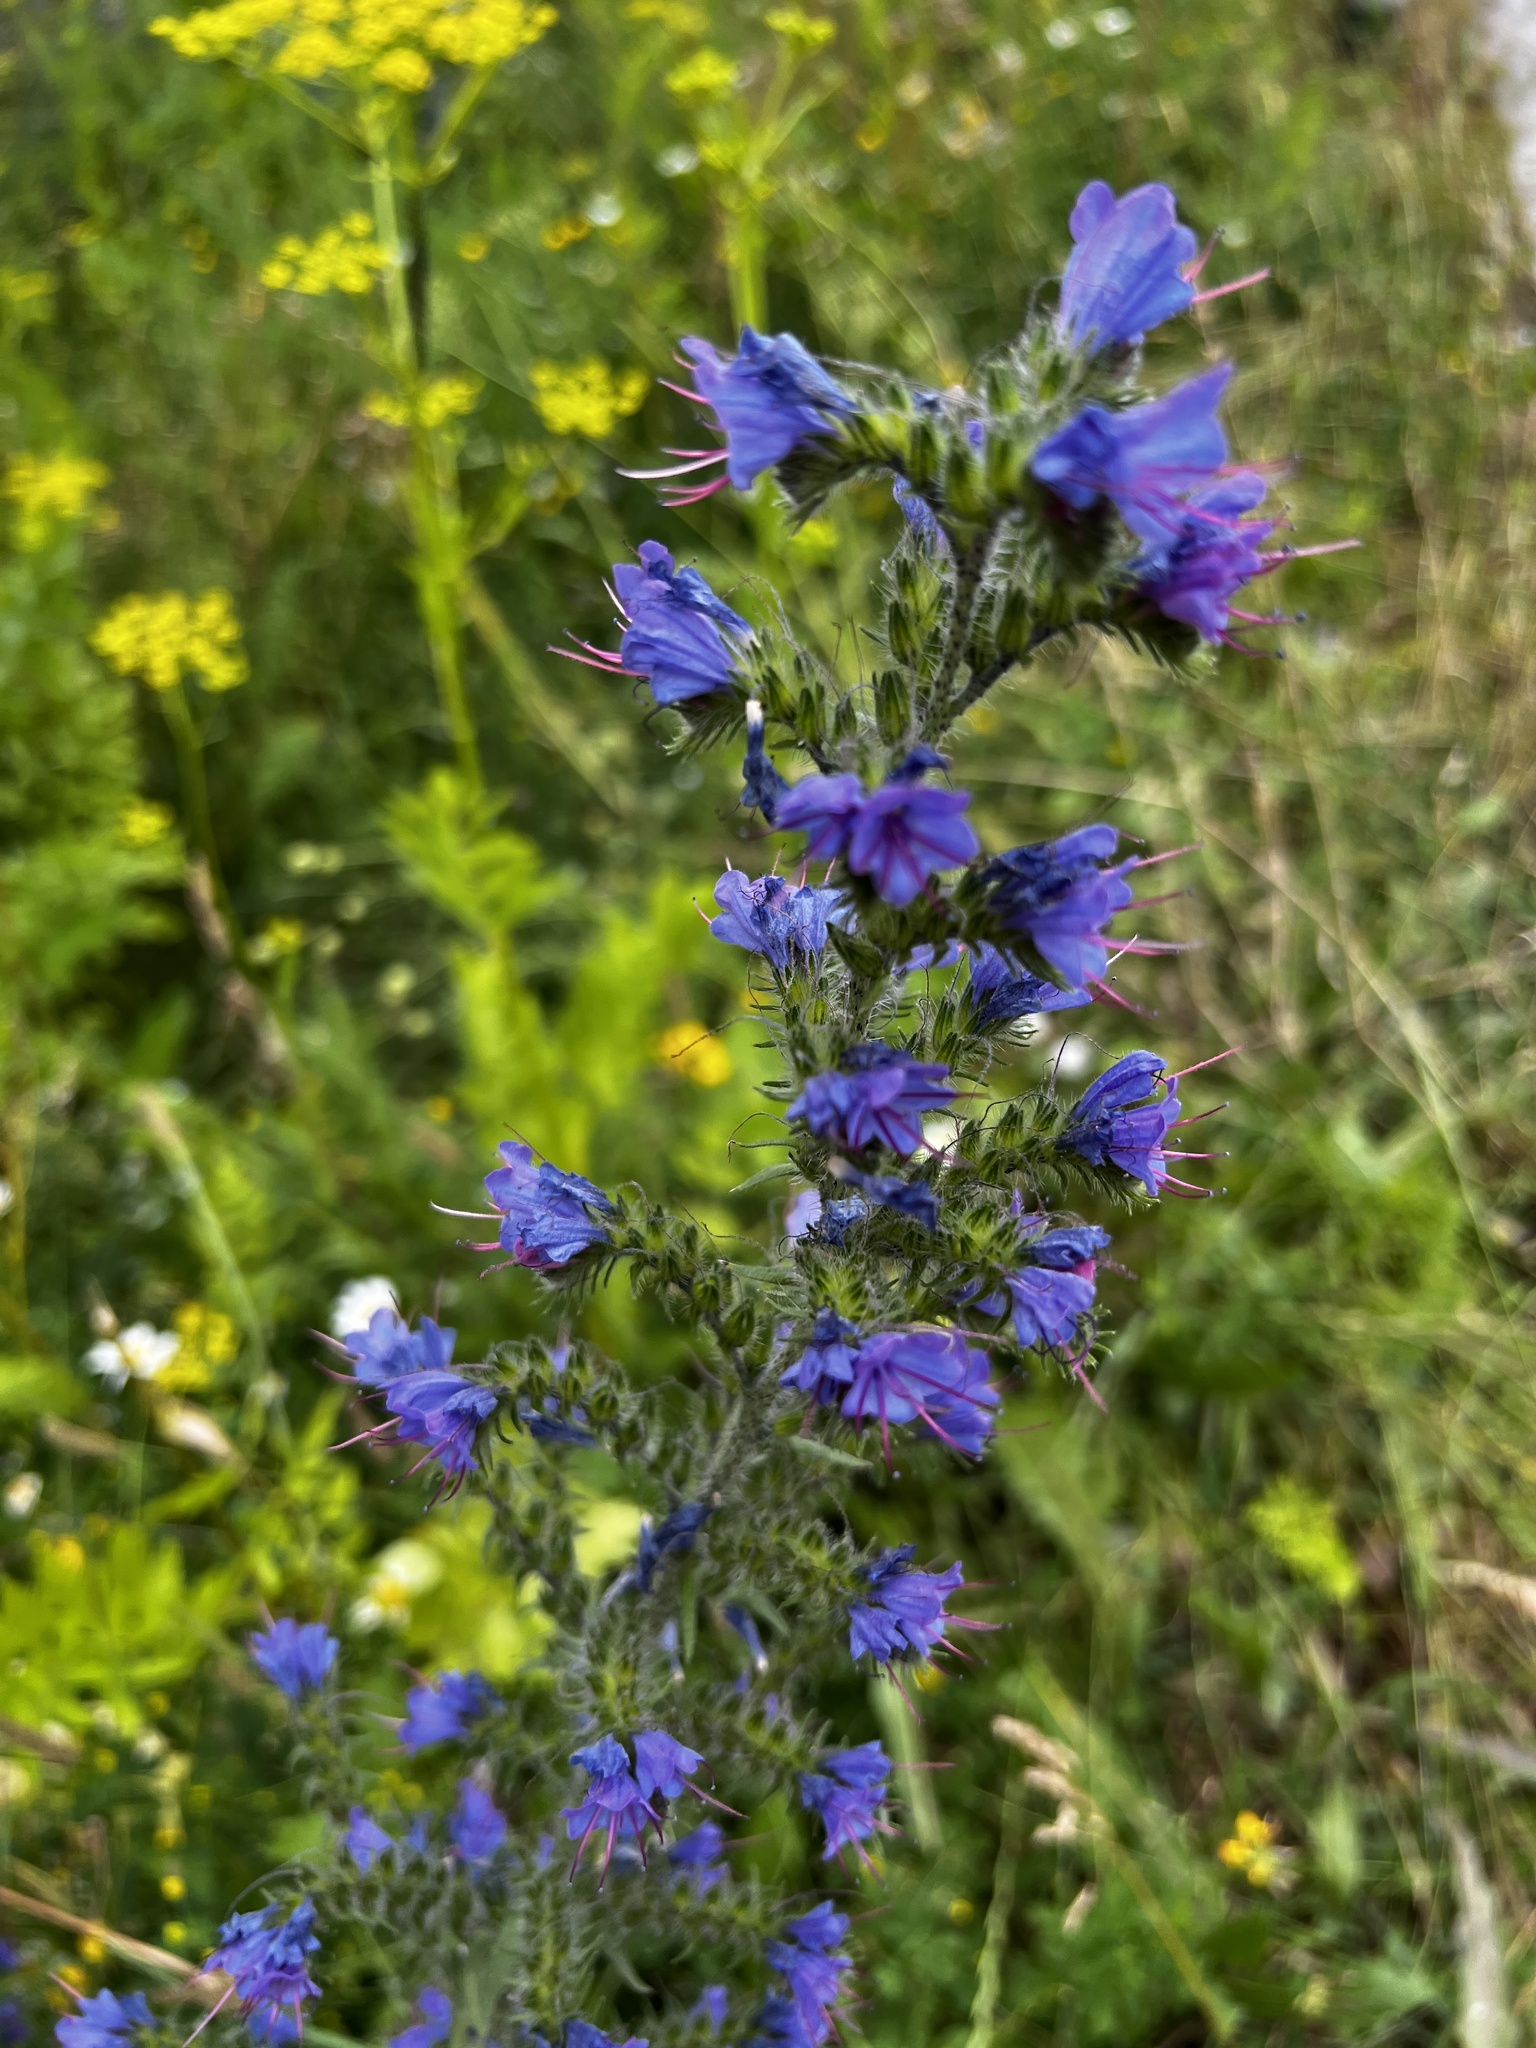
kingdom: Plantae
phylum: Tracheophyta
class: Magnoliopsida
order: Boraginales
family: Boraginaceae
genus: Echium
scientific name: Echium vulgare
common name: Common viper's bugloss
